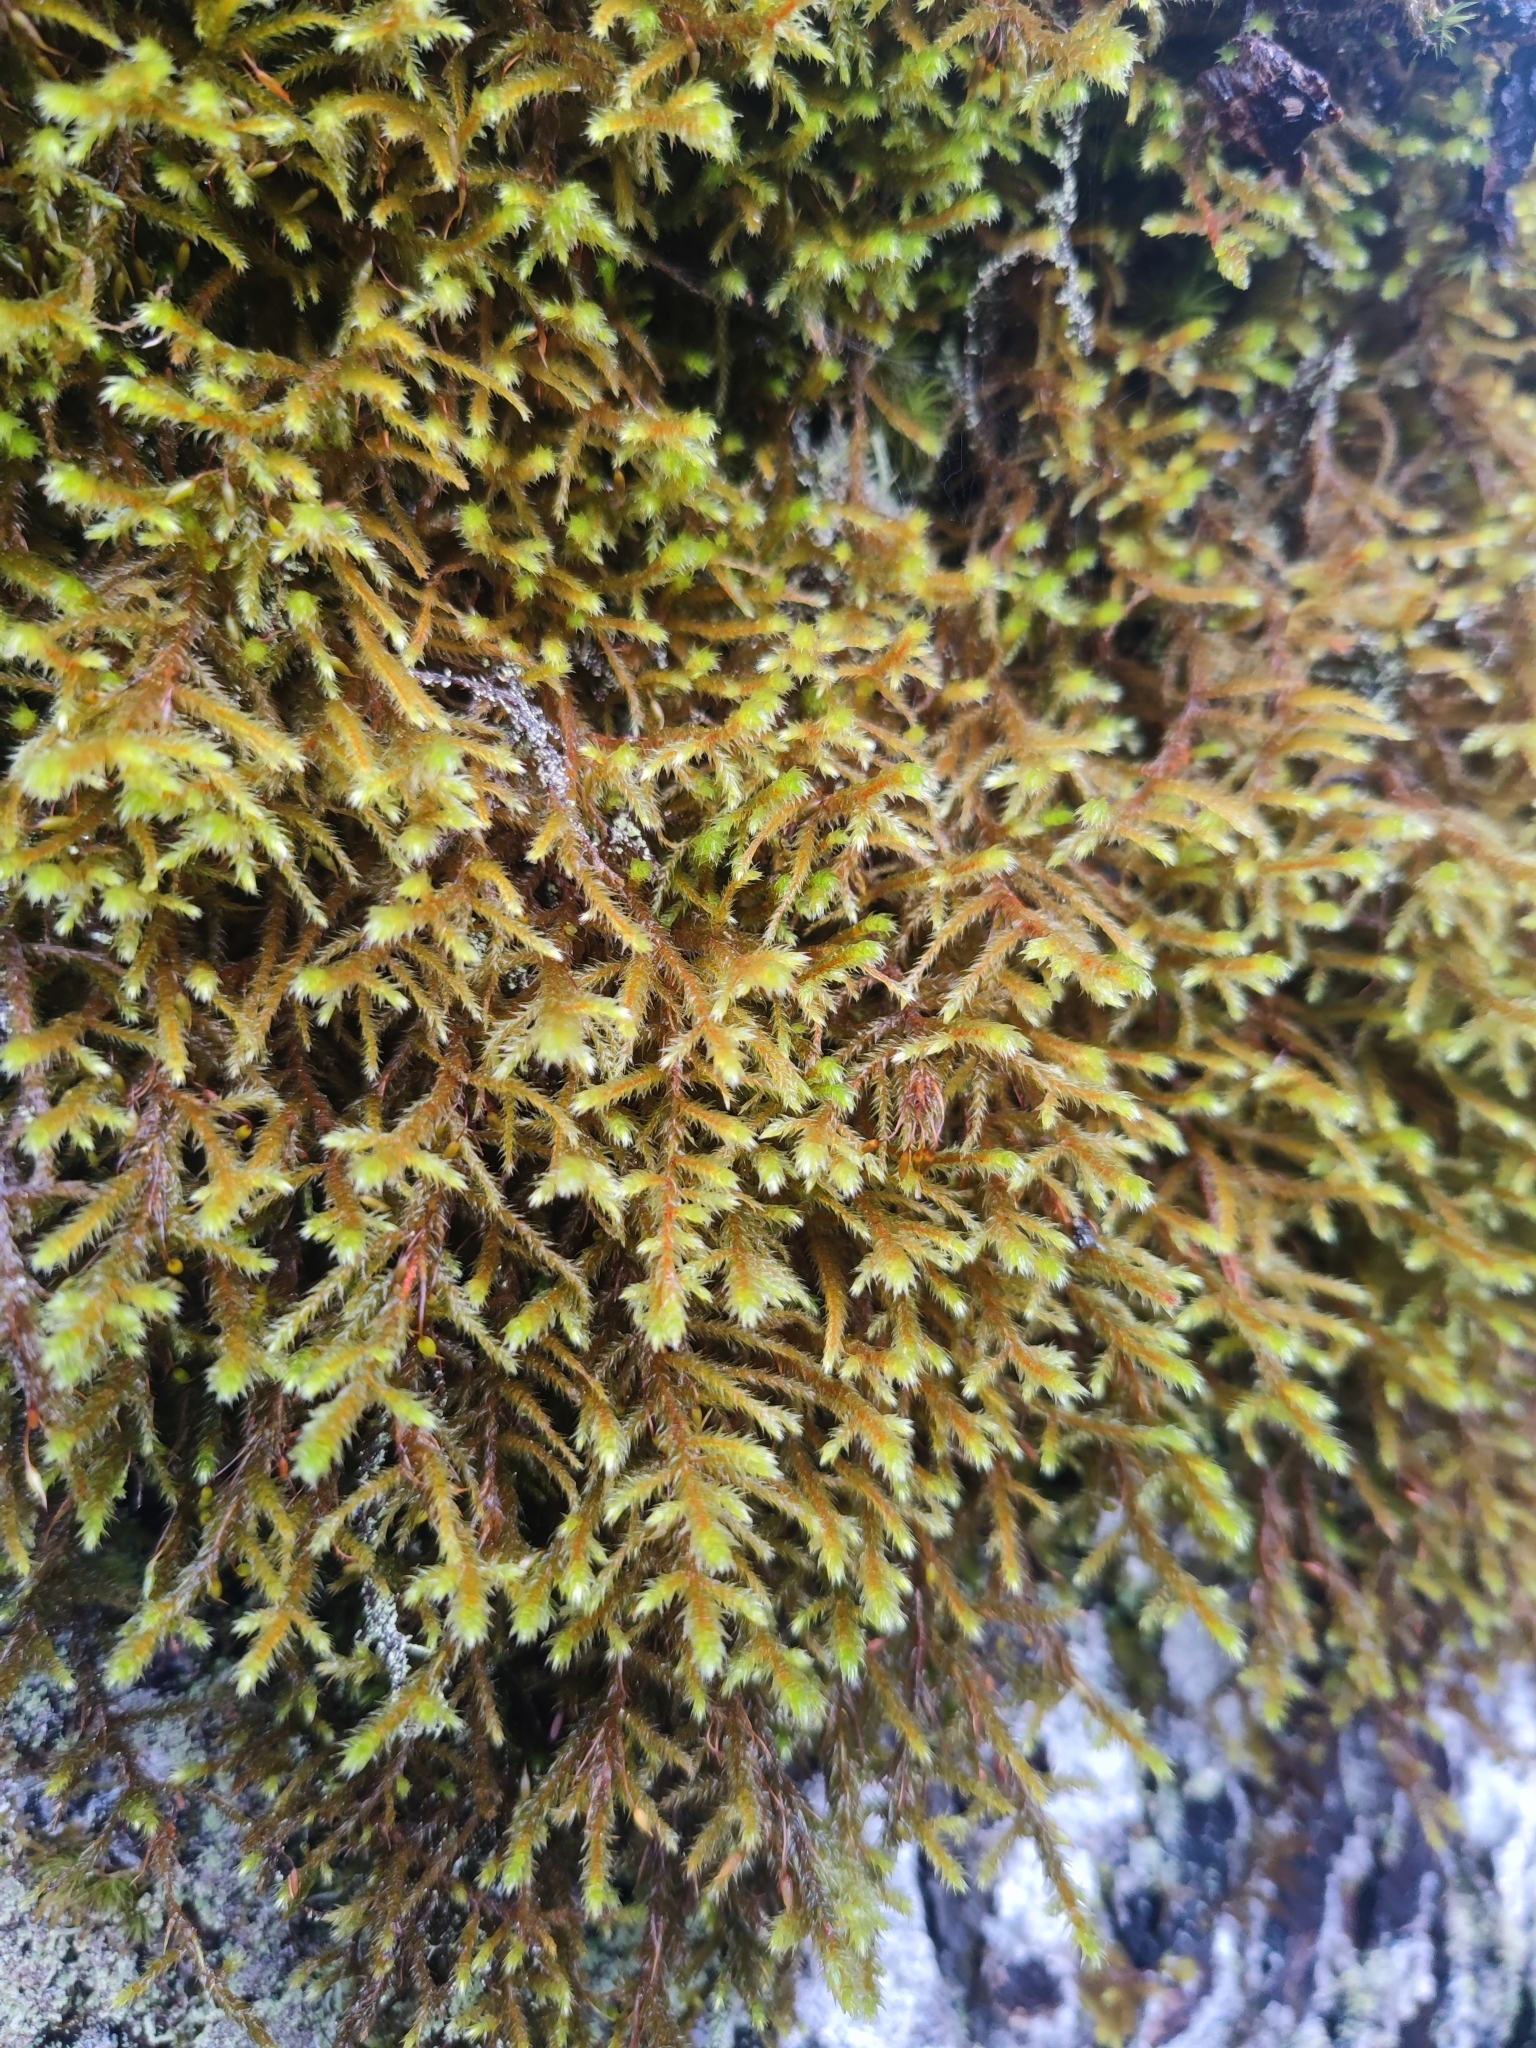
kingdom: Plantae
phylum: Bryophyta
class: Bryopsida
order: Hypnales
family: Antitrichiaceae
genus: Antitrichia
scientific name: Antitrichia curtipendula
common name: Pendulous wing-moss
